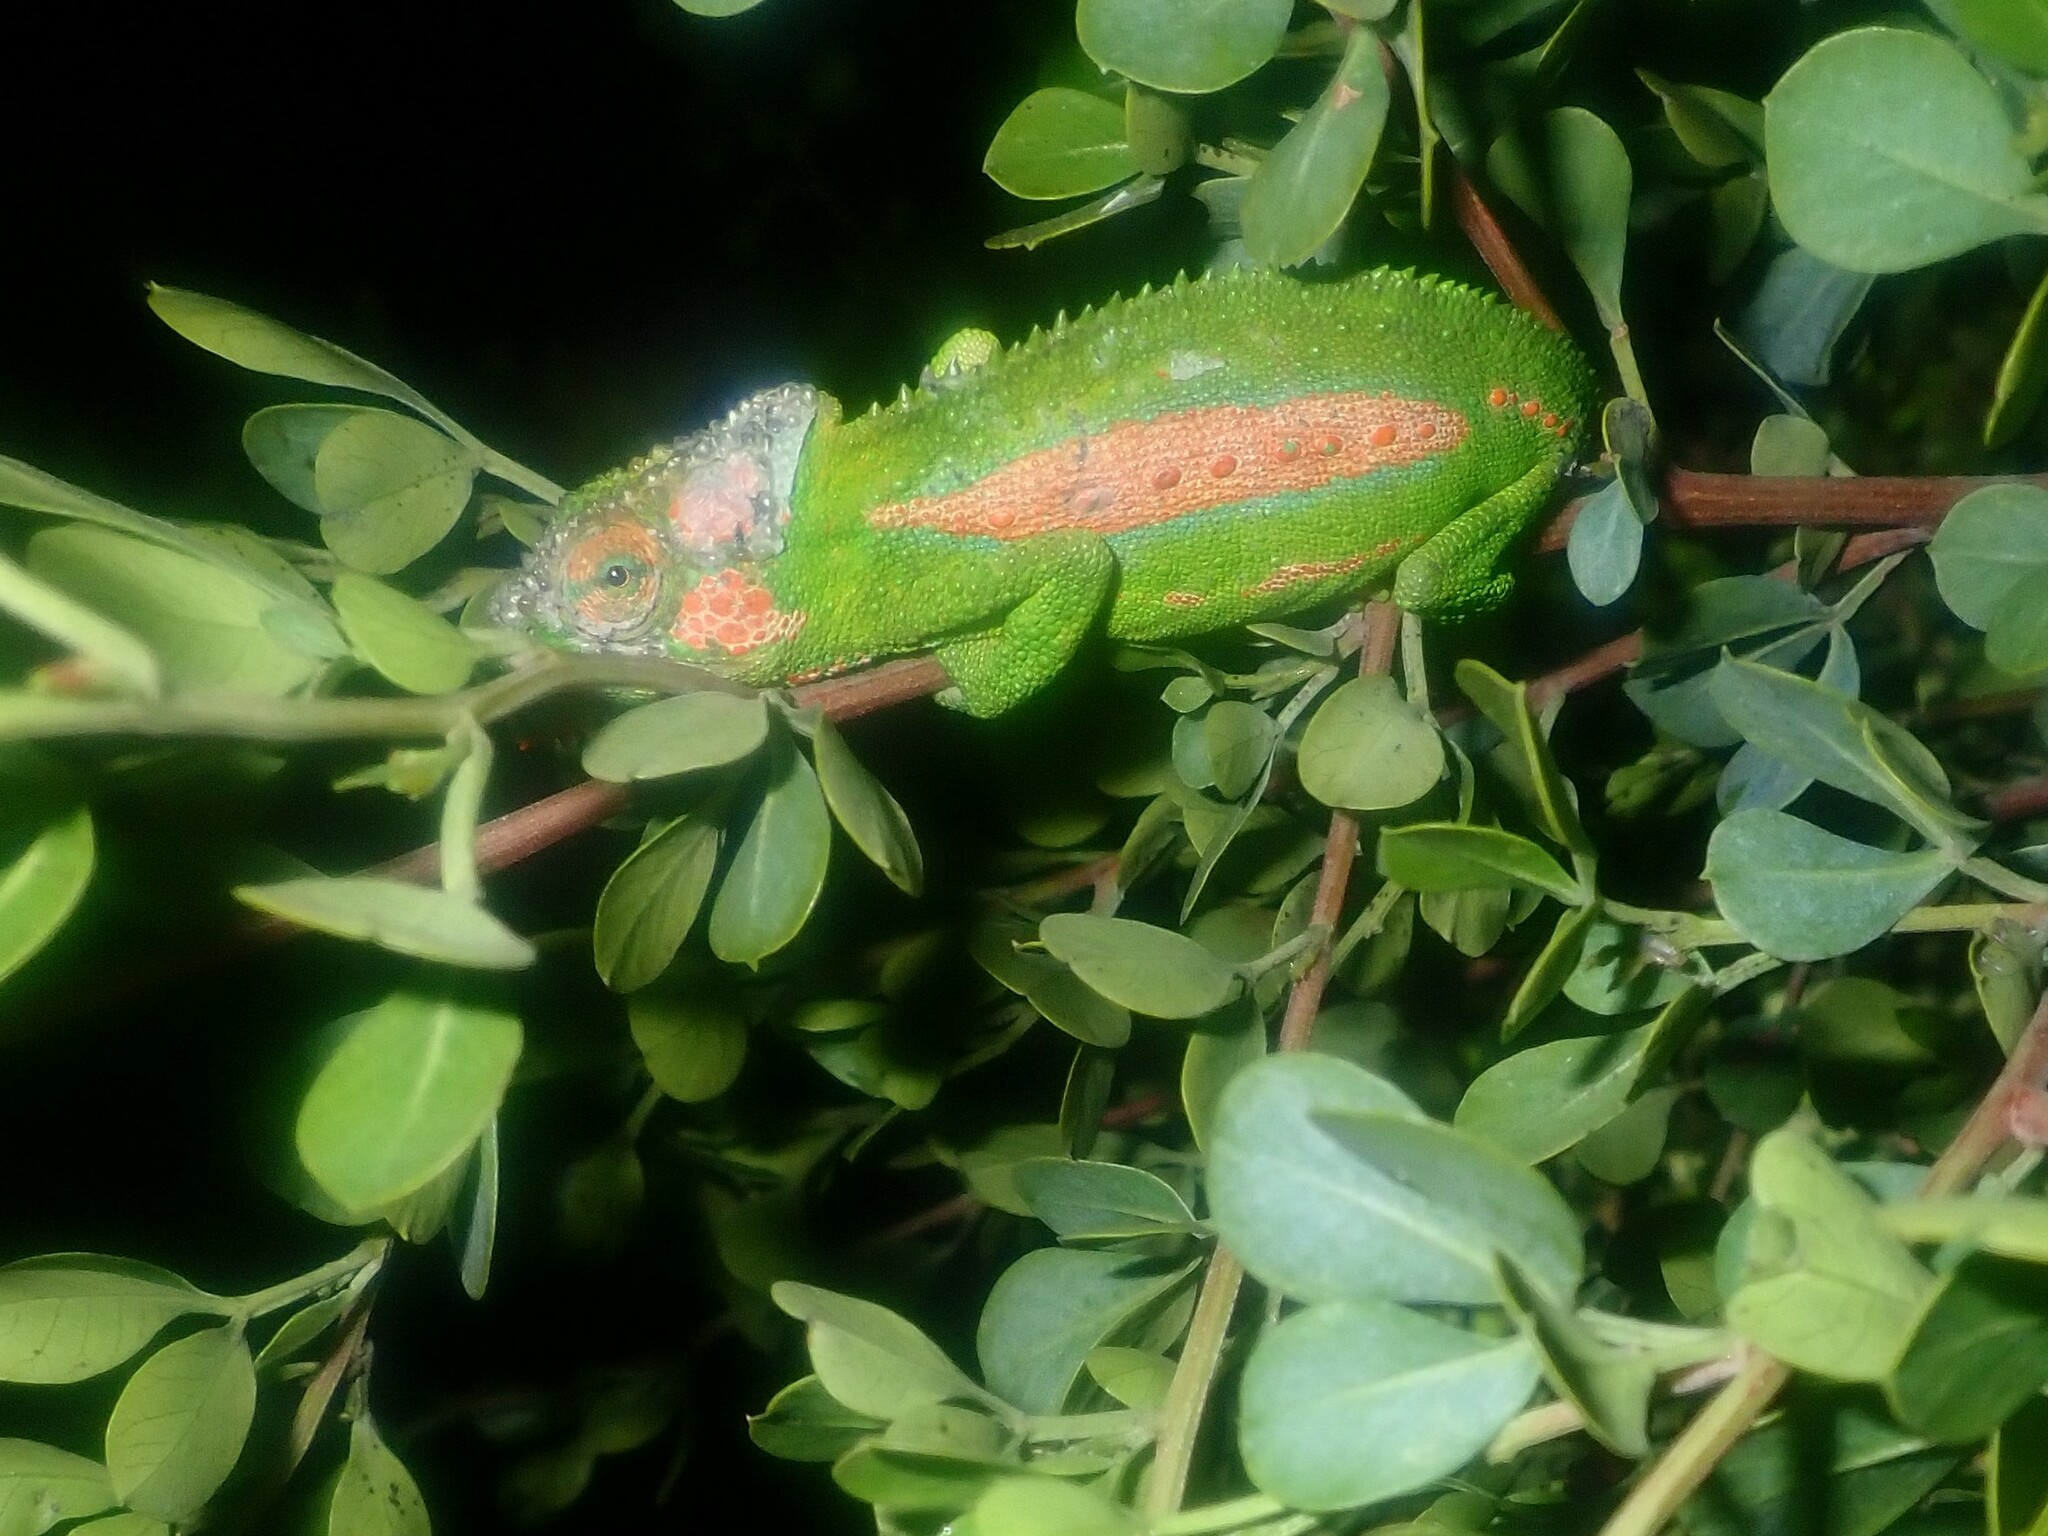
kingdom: Animalia
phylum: Chordata
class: Squamata
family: Chamaeleonidae
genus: Bradypodion
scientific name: Bradypodion pumilum
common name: Cape dwarf chameleon
